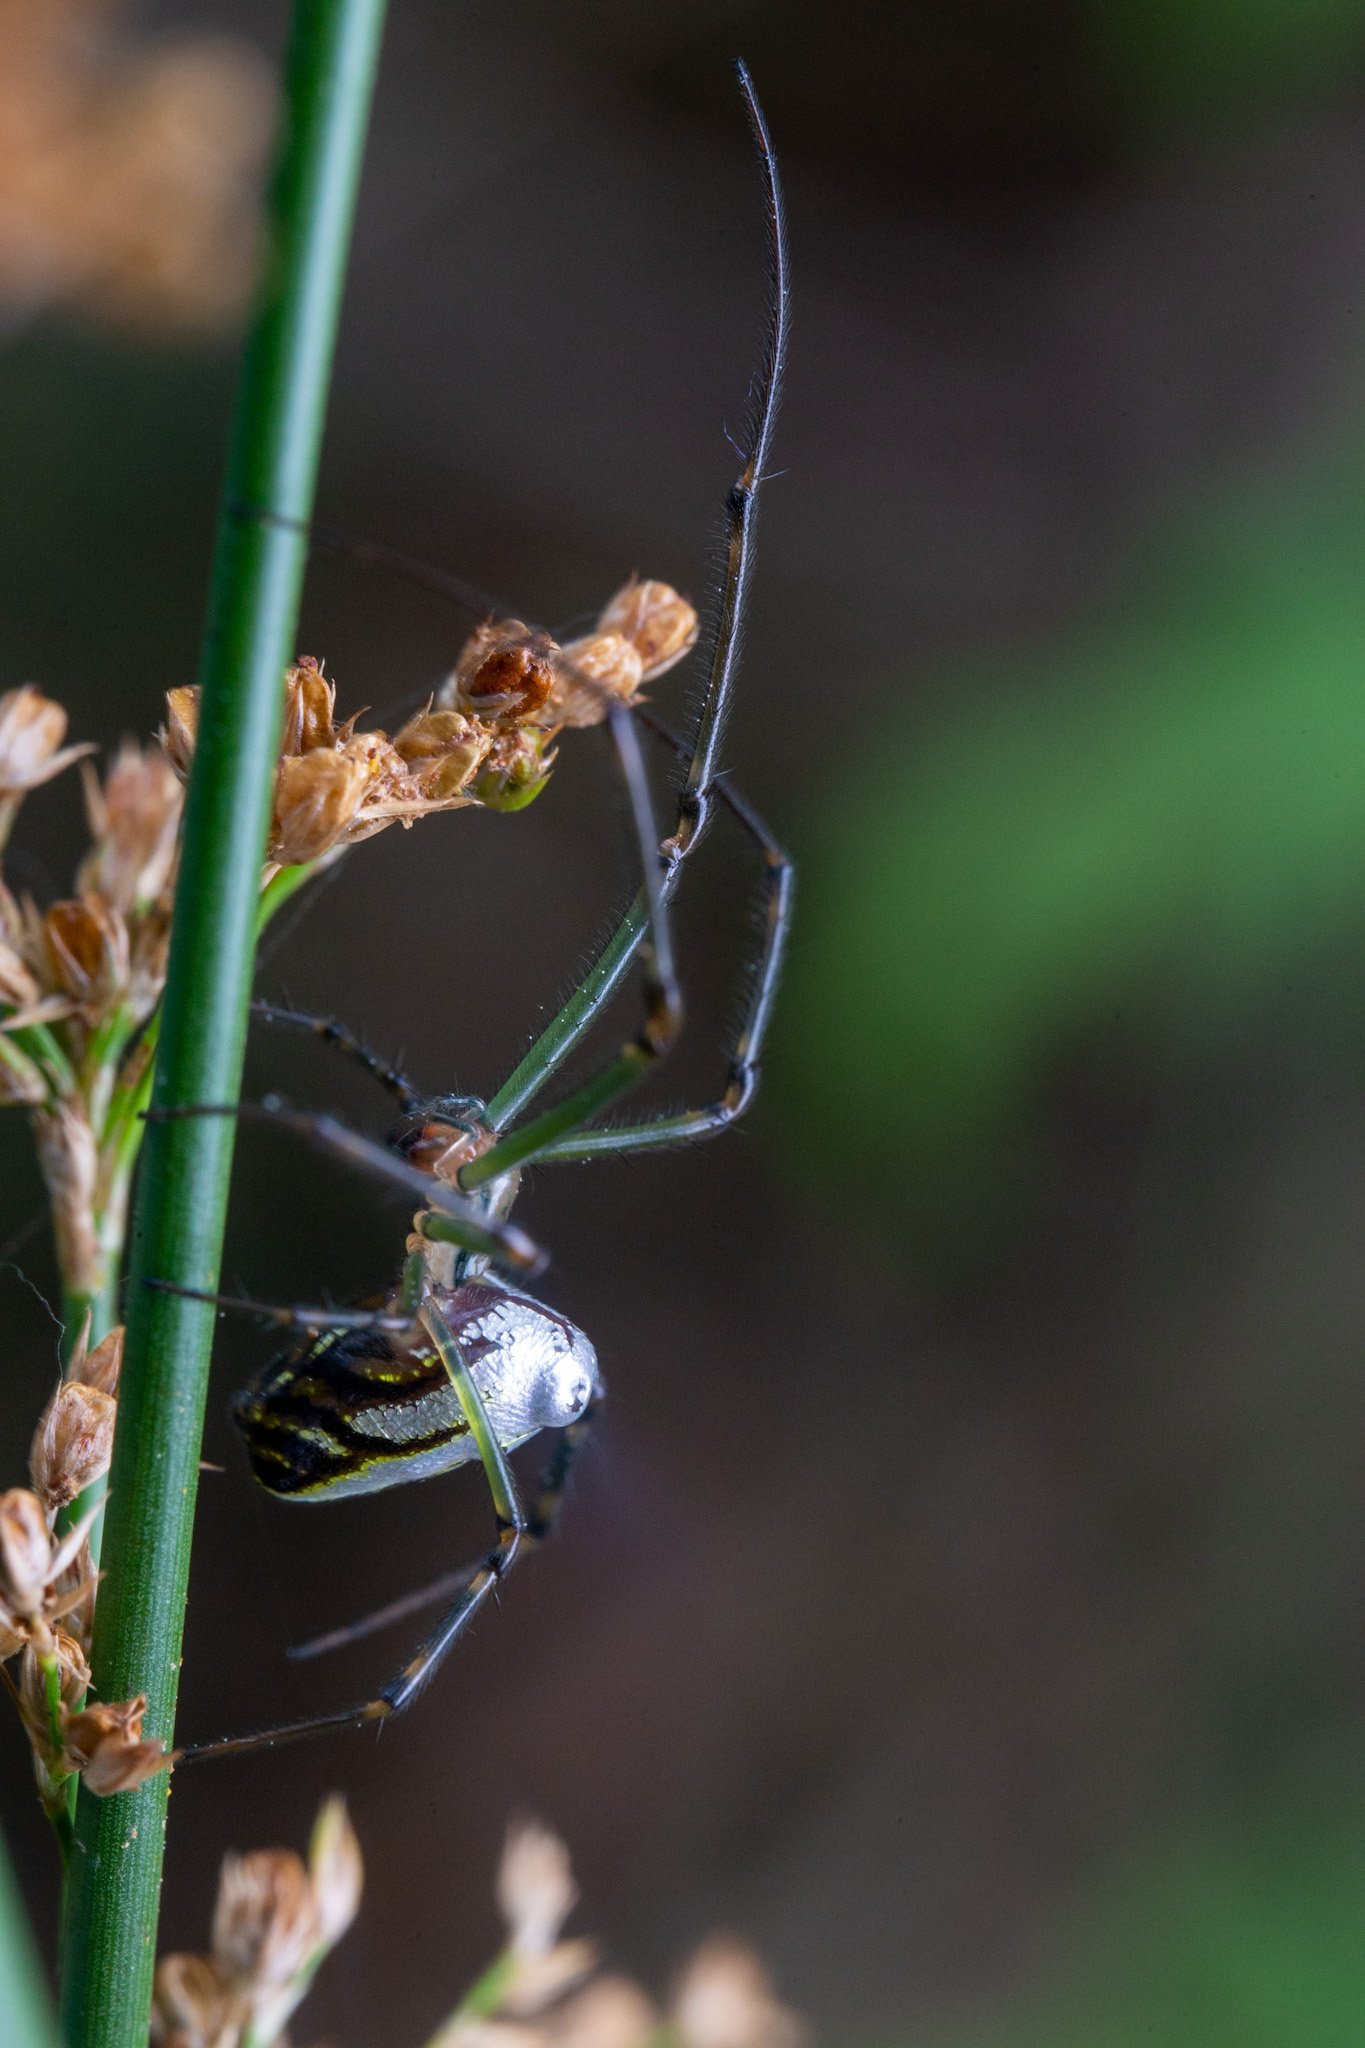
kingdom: Animalia
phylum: Arthropoda
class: Arachnida
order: Araneae
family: Tetragnathidae
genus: Leucauge
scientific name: Leucauge dromedaria
